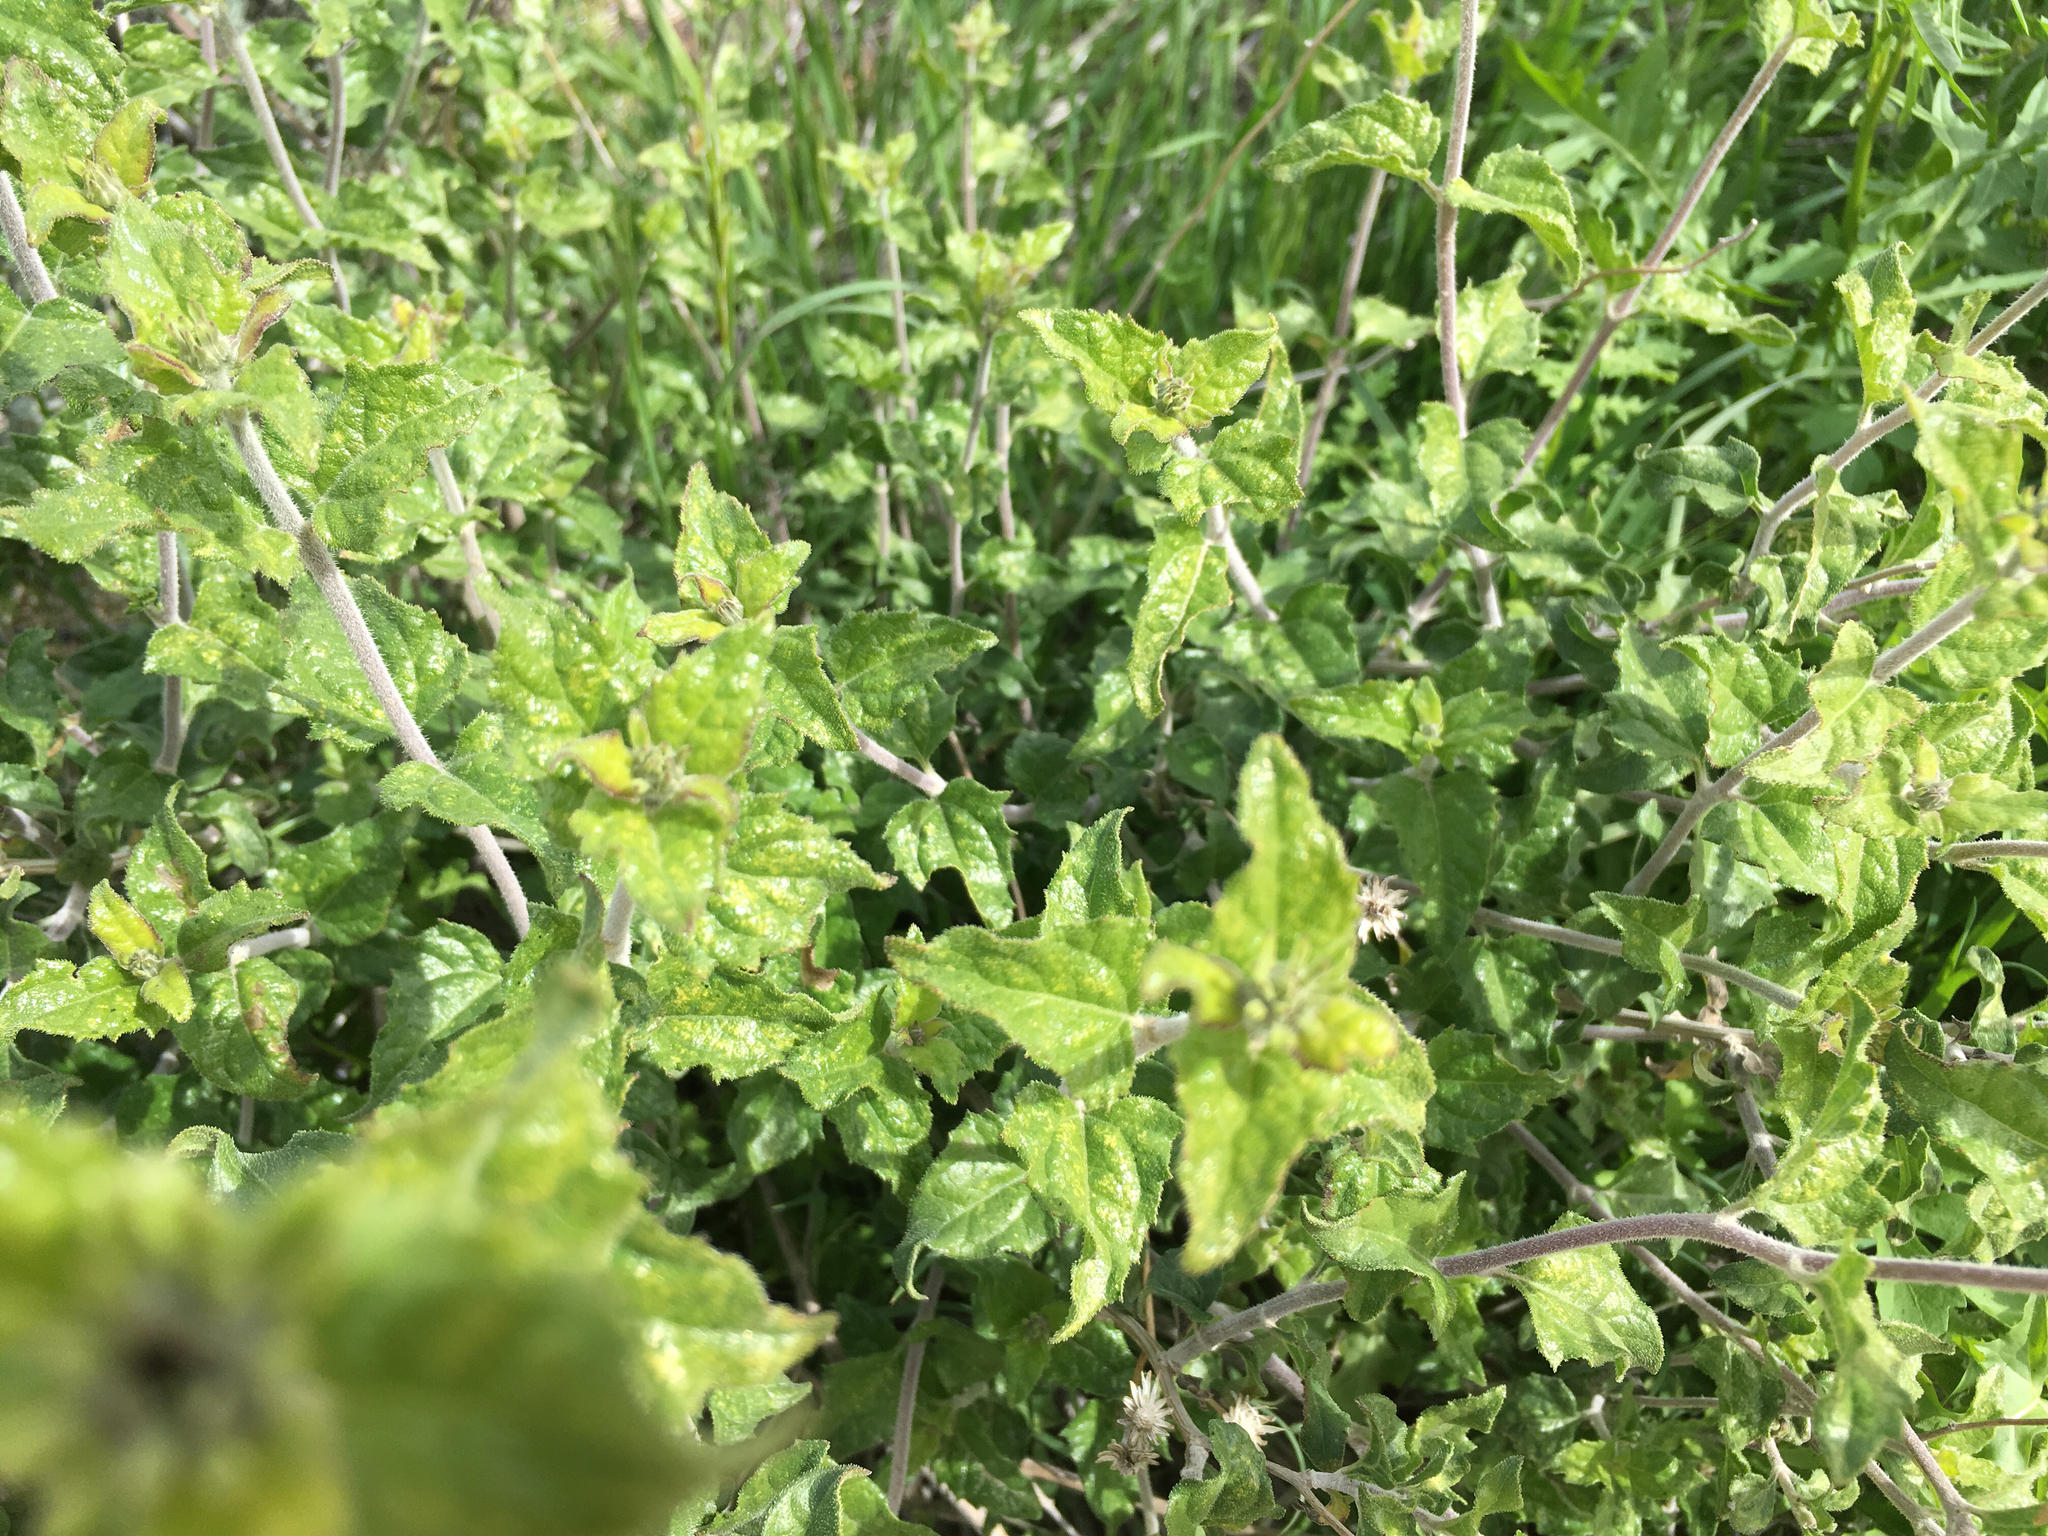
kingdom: Plantae
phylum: Tracheophyta
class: Magnoliopsida
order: Asterales
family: Asteraceae
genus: Bahiopsis
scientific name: Bahiopsis parishii
